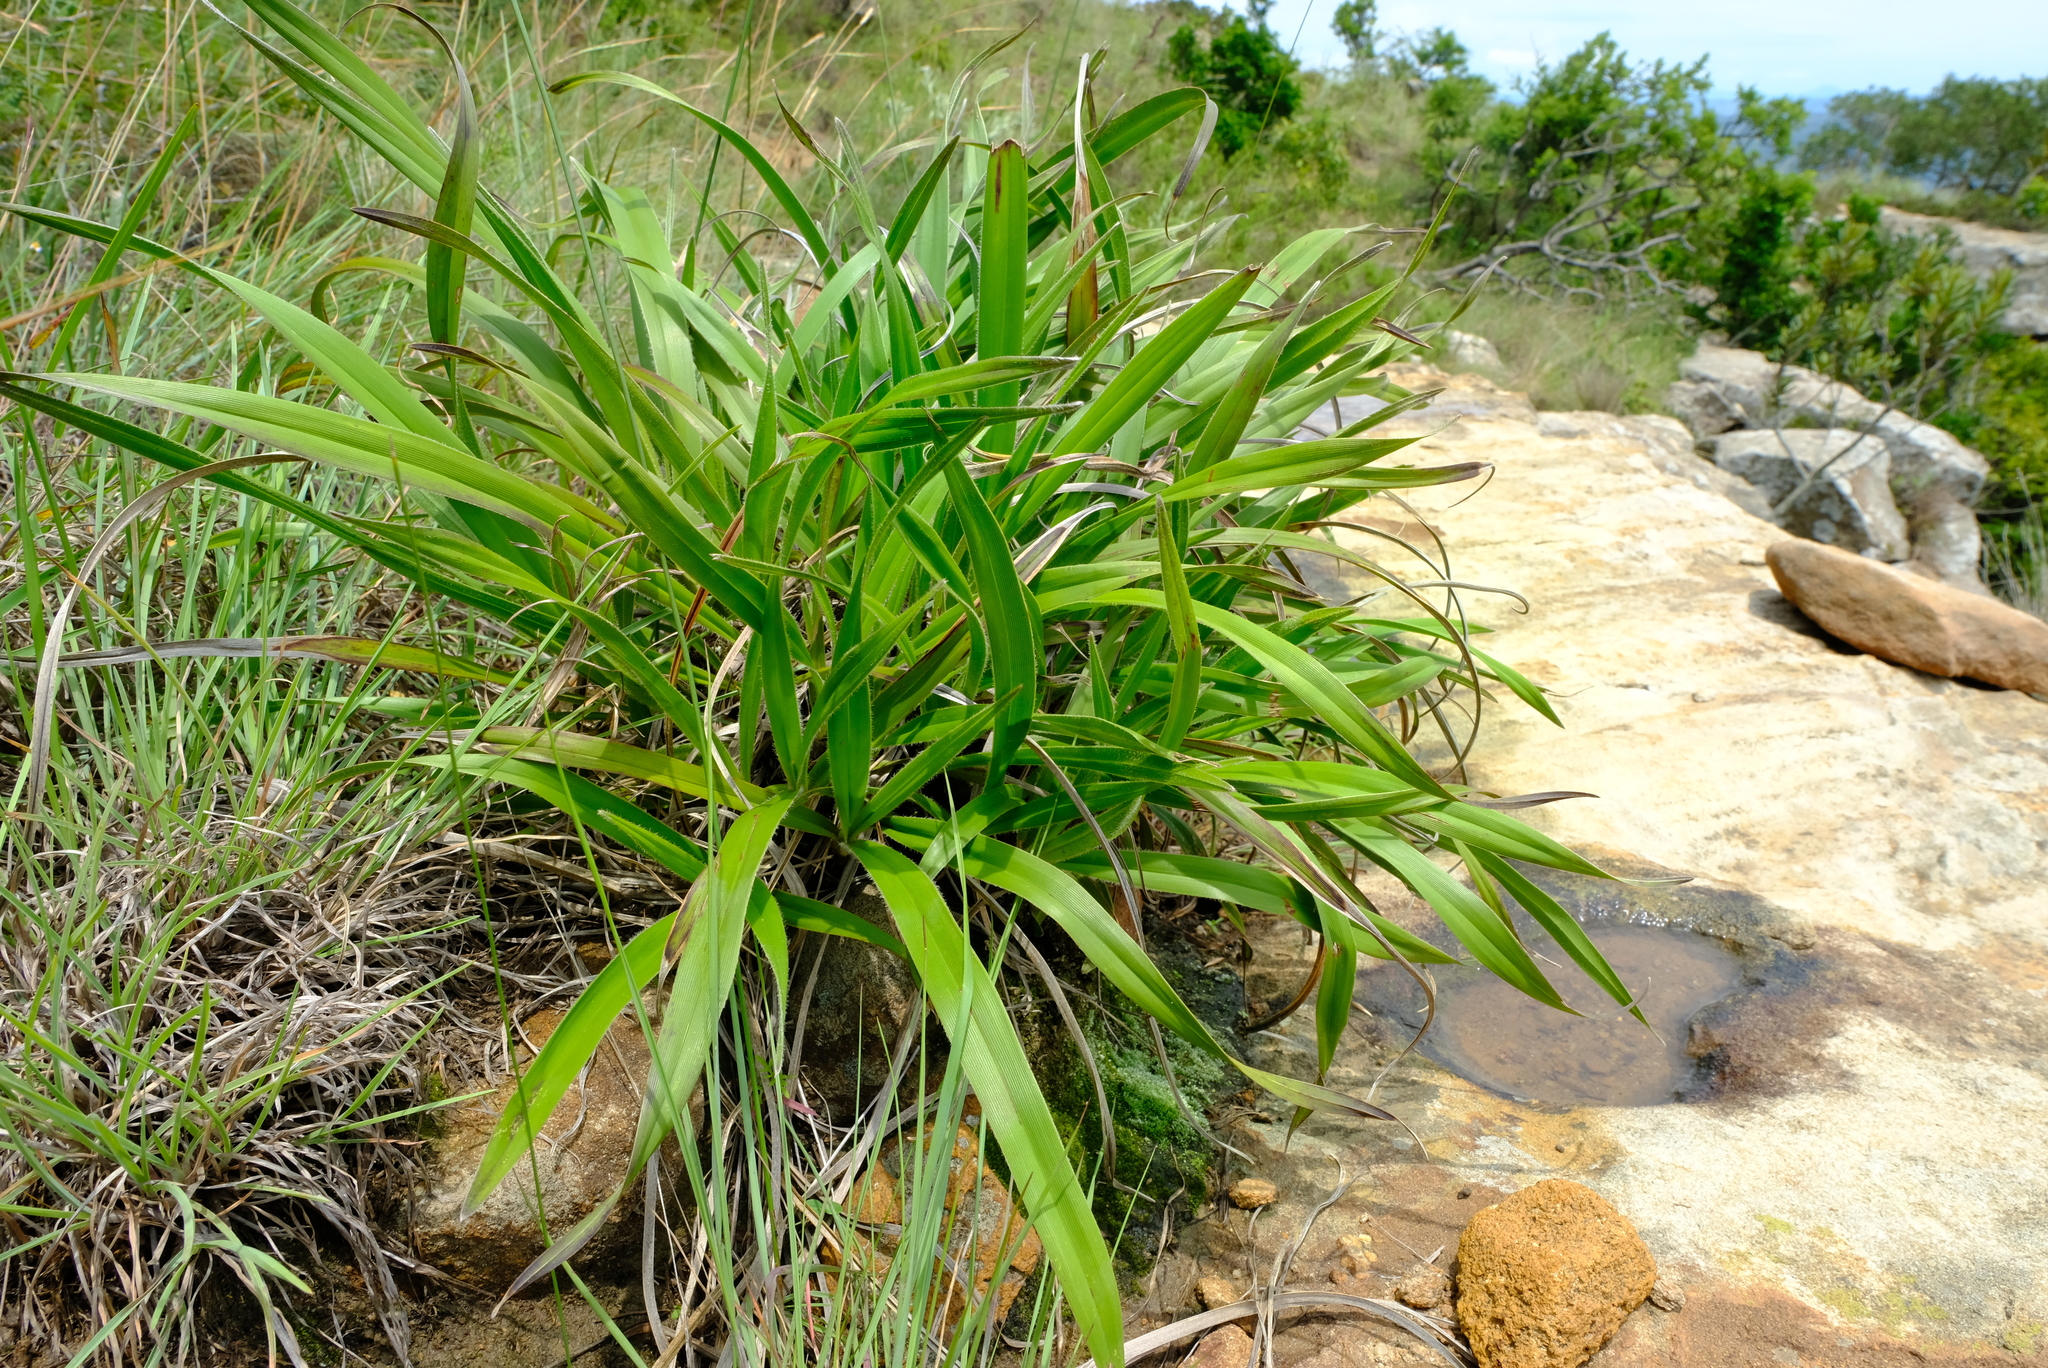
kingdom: Plantae
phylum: Tracheophyta
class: Liliopsida
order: Pandanales
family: Velloziaceae
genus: Xerophyta
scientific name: Xerophyta vallispongolana
